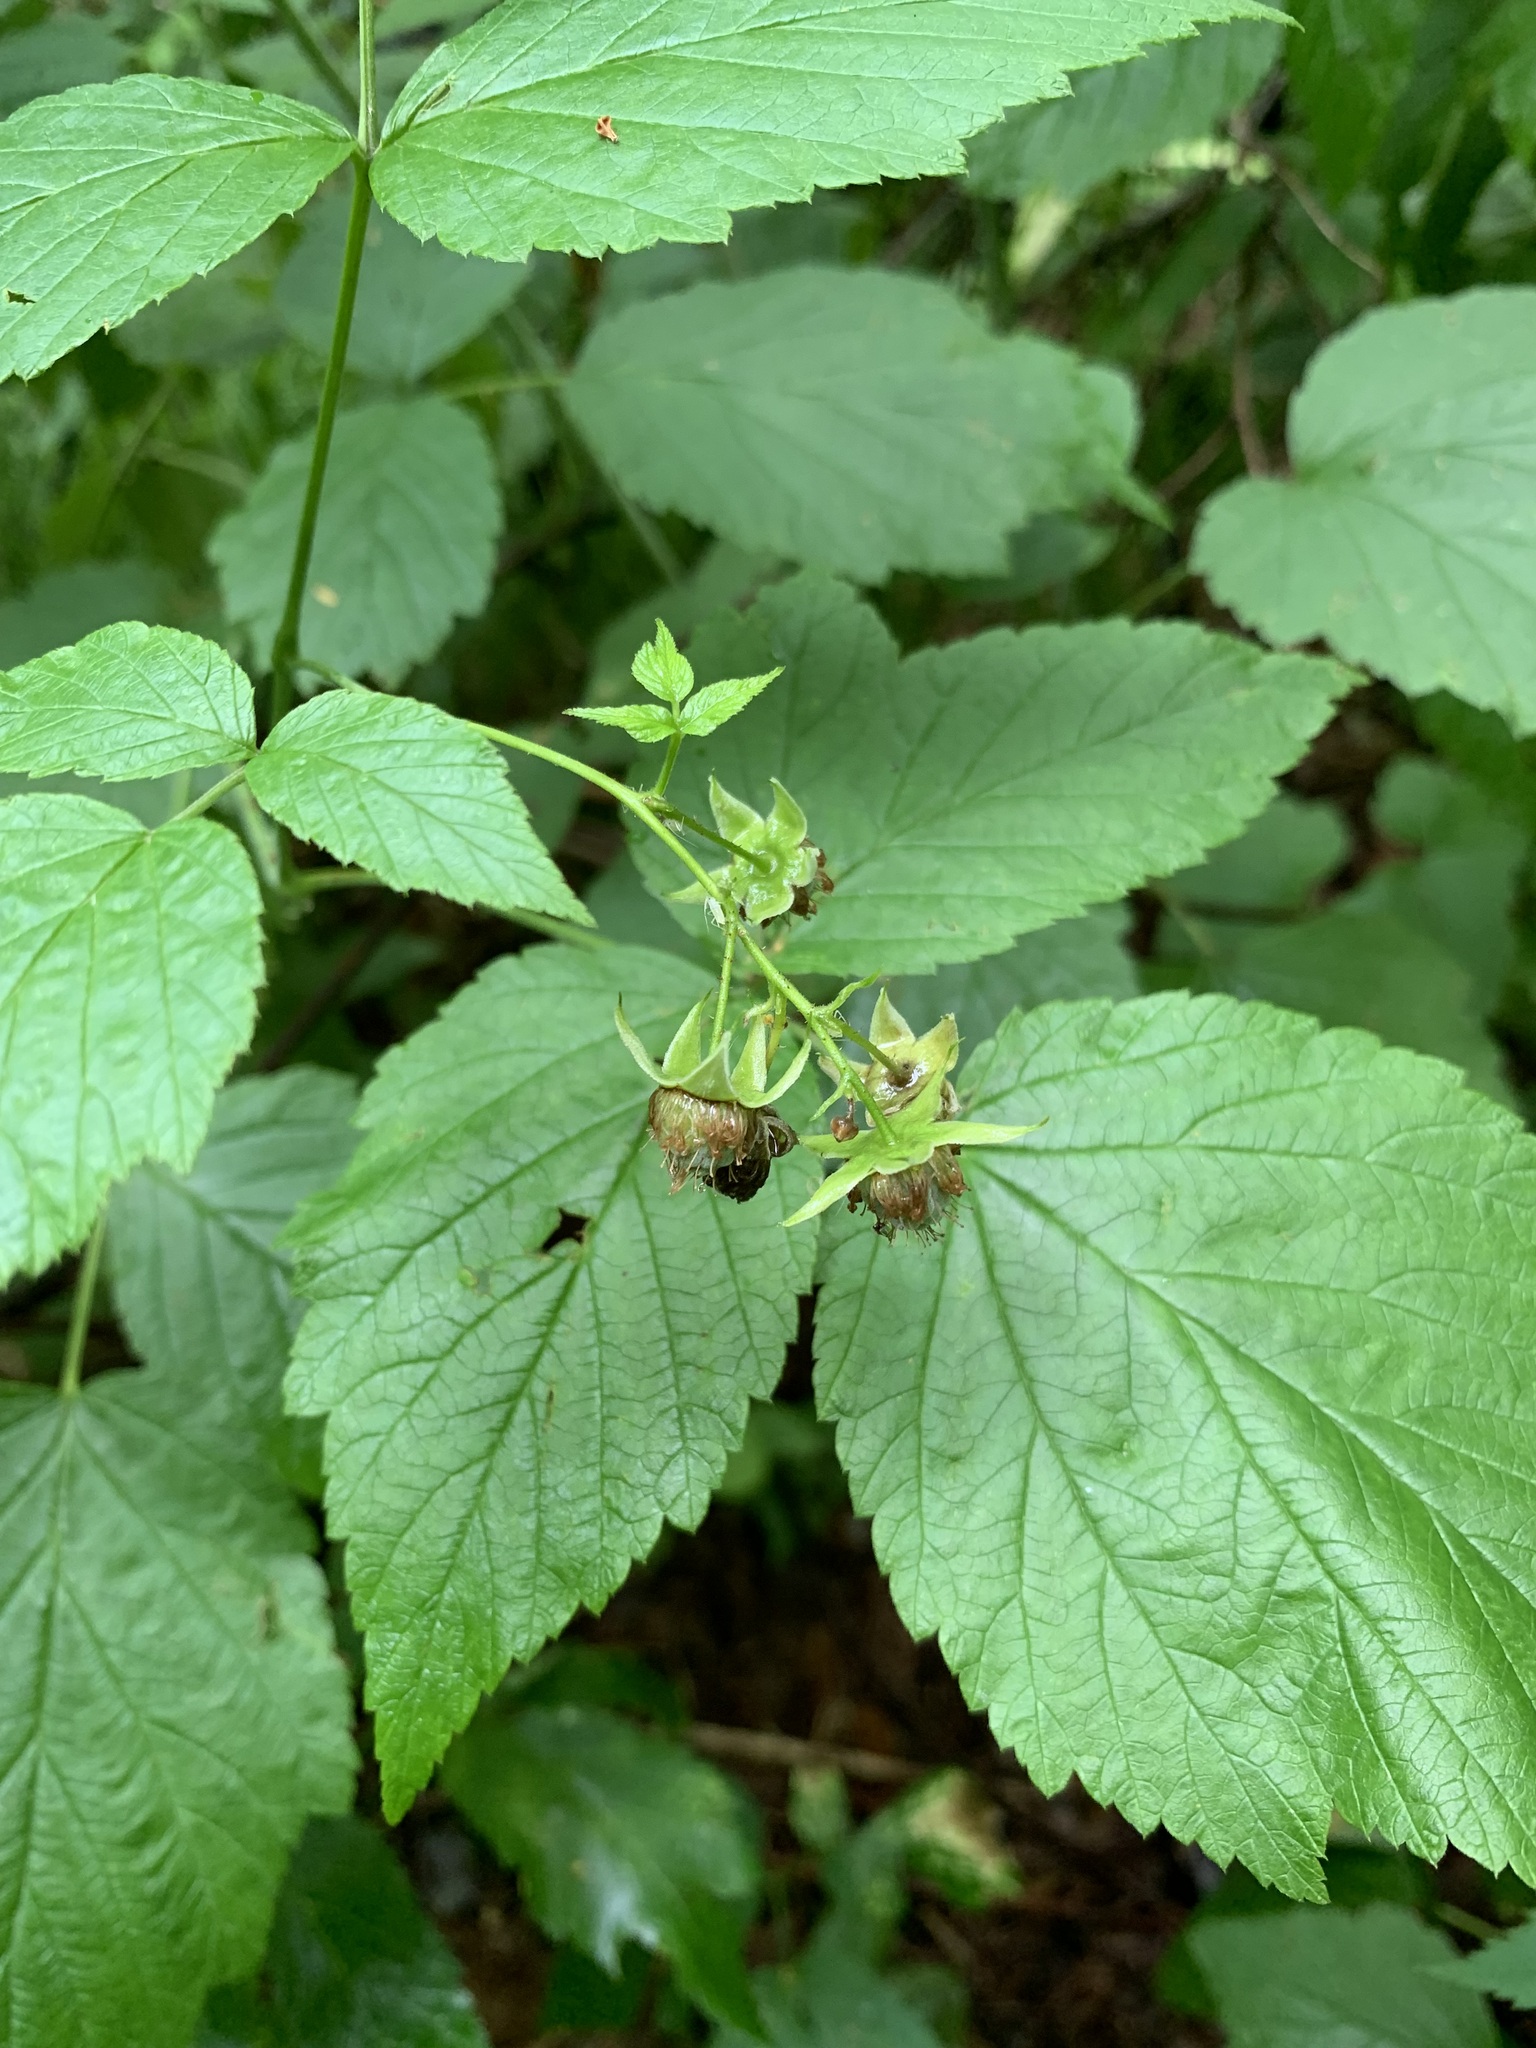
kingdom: Plantae
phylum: Tracheophyta
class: Magnoliopsida
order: Rosales
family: Rosaceae
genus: Rubus
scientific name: Rubus idaeus
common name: Raspberry
